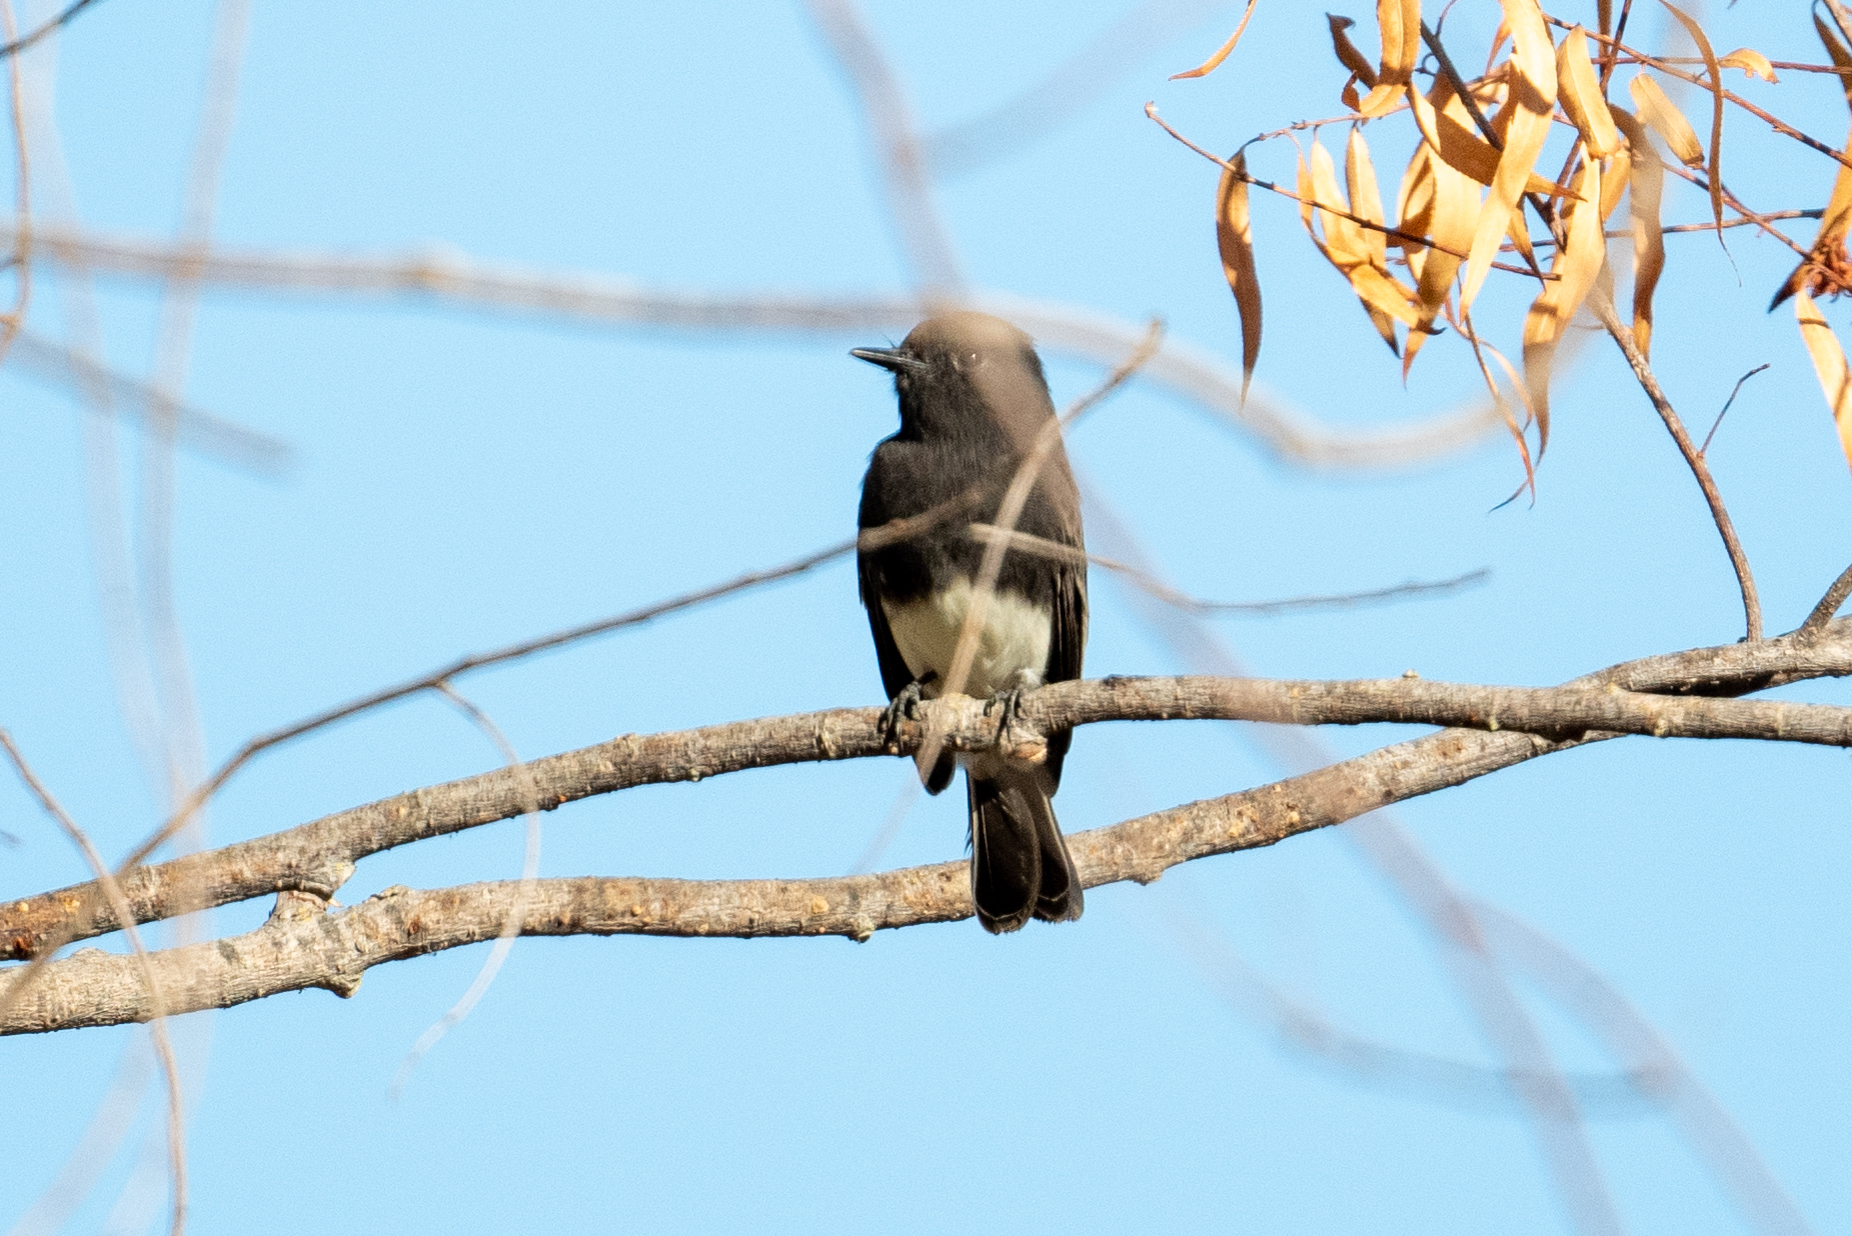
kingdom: Animalia
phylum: Chordata
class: Aves
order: Passeriformes
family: Tyrannidae
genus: Sayornis
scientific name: Sayornis nigricans
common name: Black phoebe
